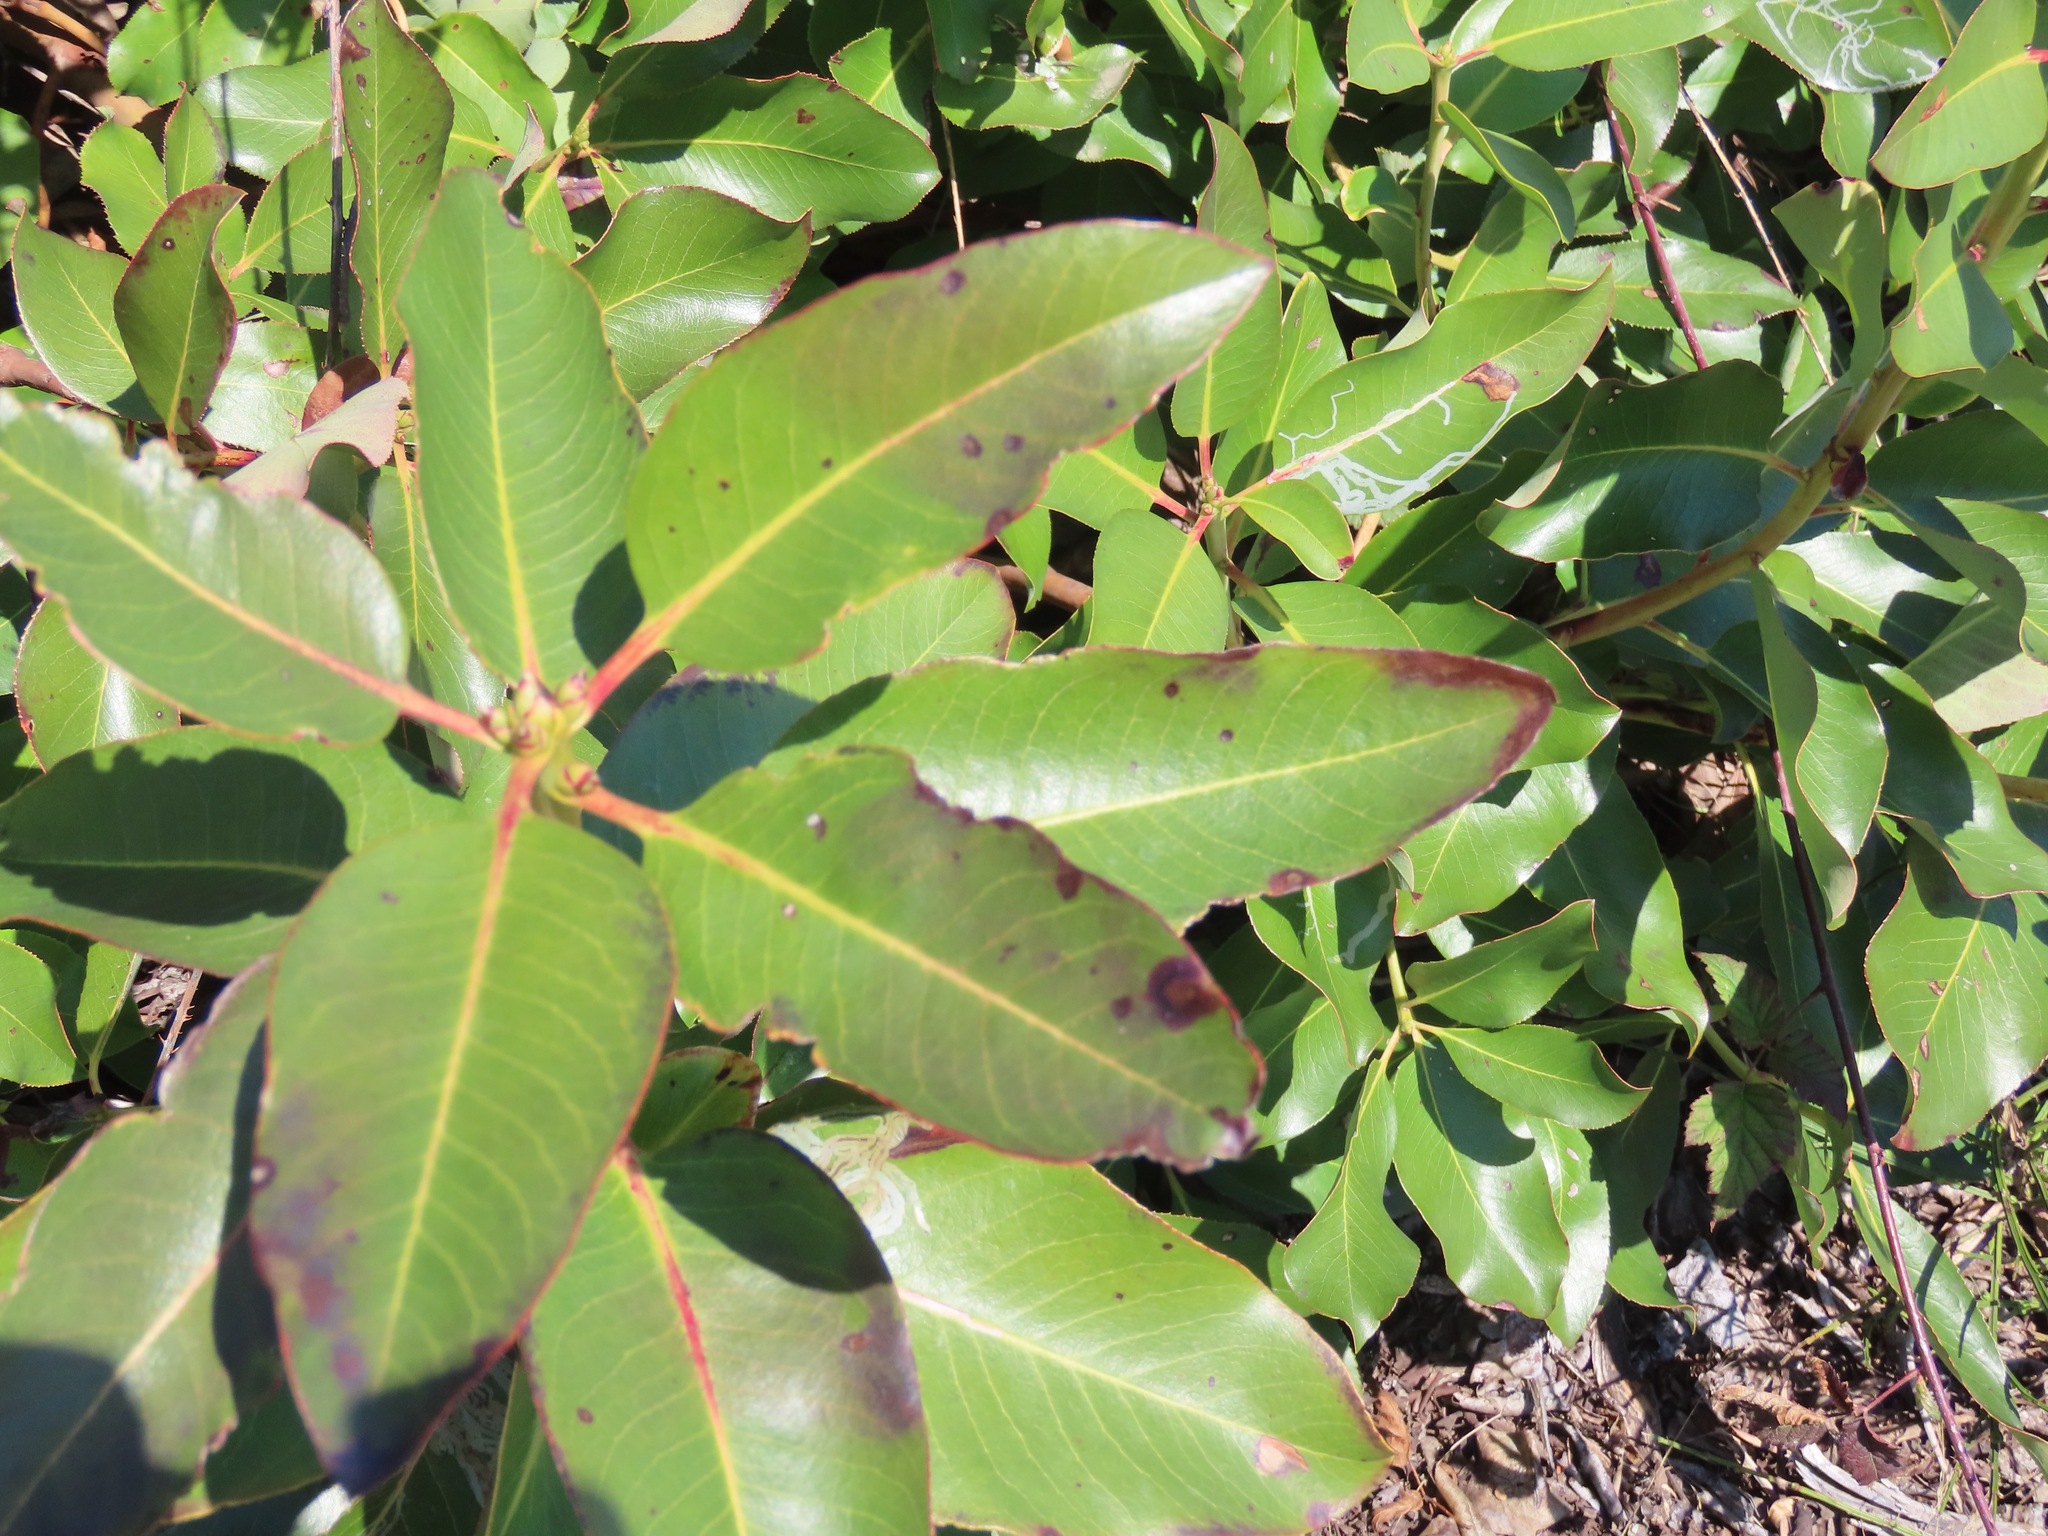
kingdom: Plantae
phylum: Tracheophyta
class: Magnoliopsida
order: Ericales
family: Ericaceae
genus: Arbutus
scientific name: Arbutus menziesii
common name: Pacific madrone
